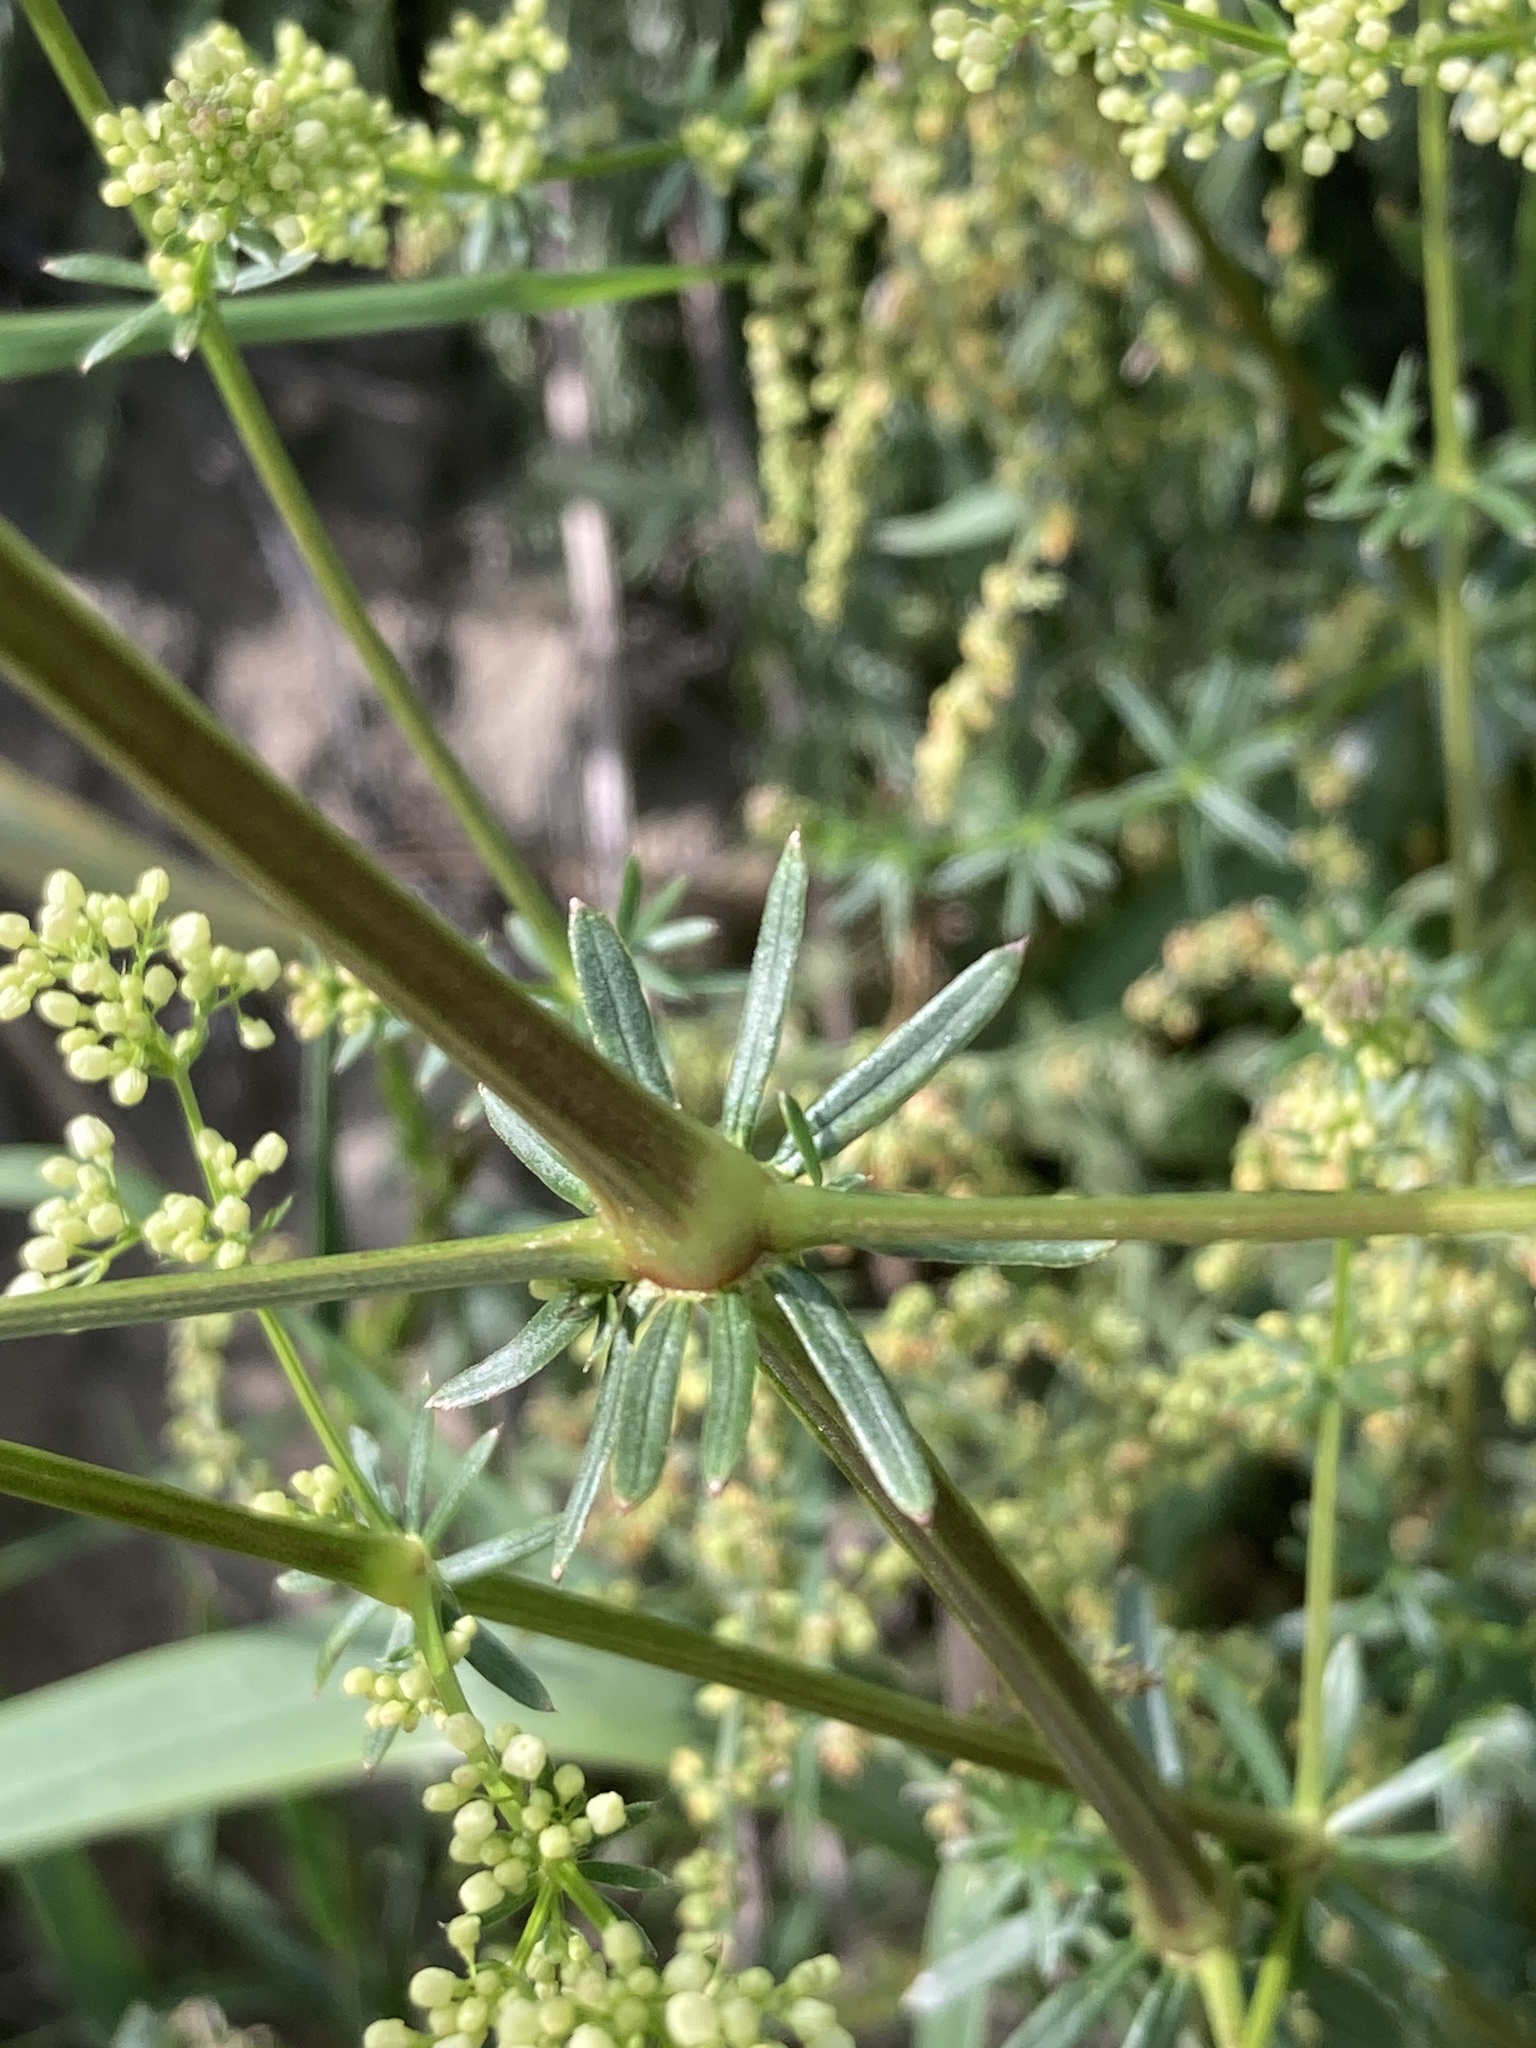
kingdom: Plantae
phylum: Tracheophyta
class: Magnoliopsida
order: Gentianales
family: Rubiaceae
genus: Galium
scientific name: Galium mollugo
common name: Hedge bedstraw
